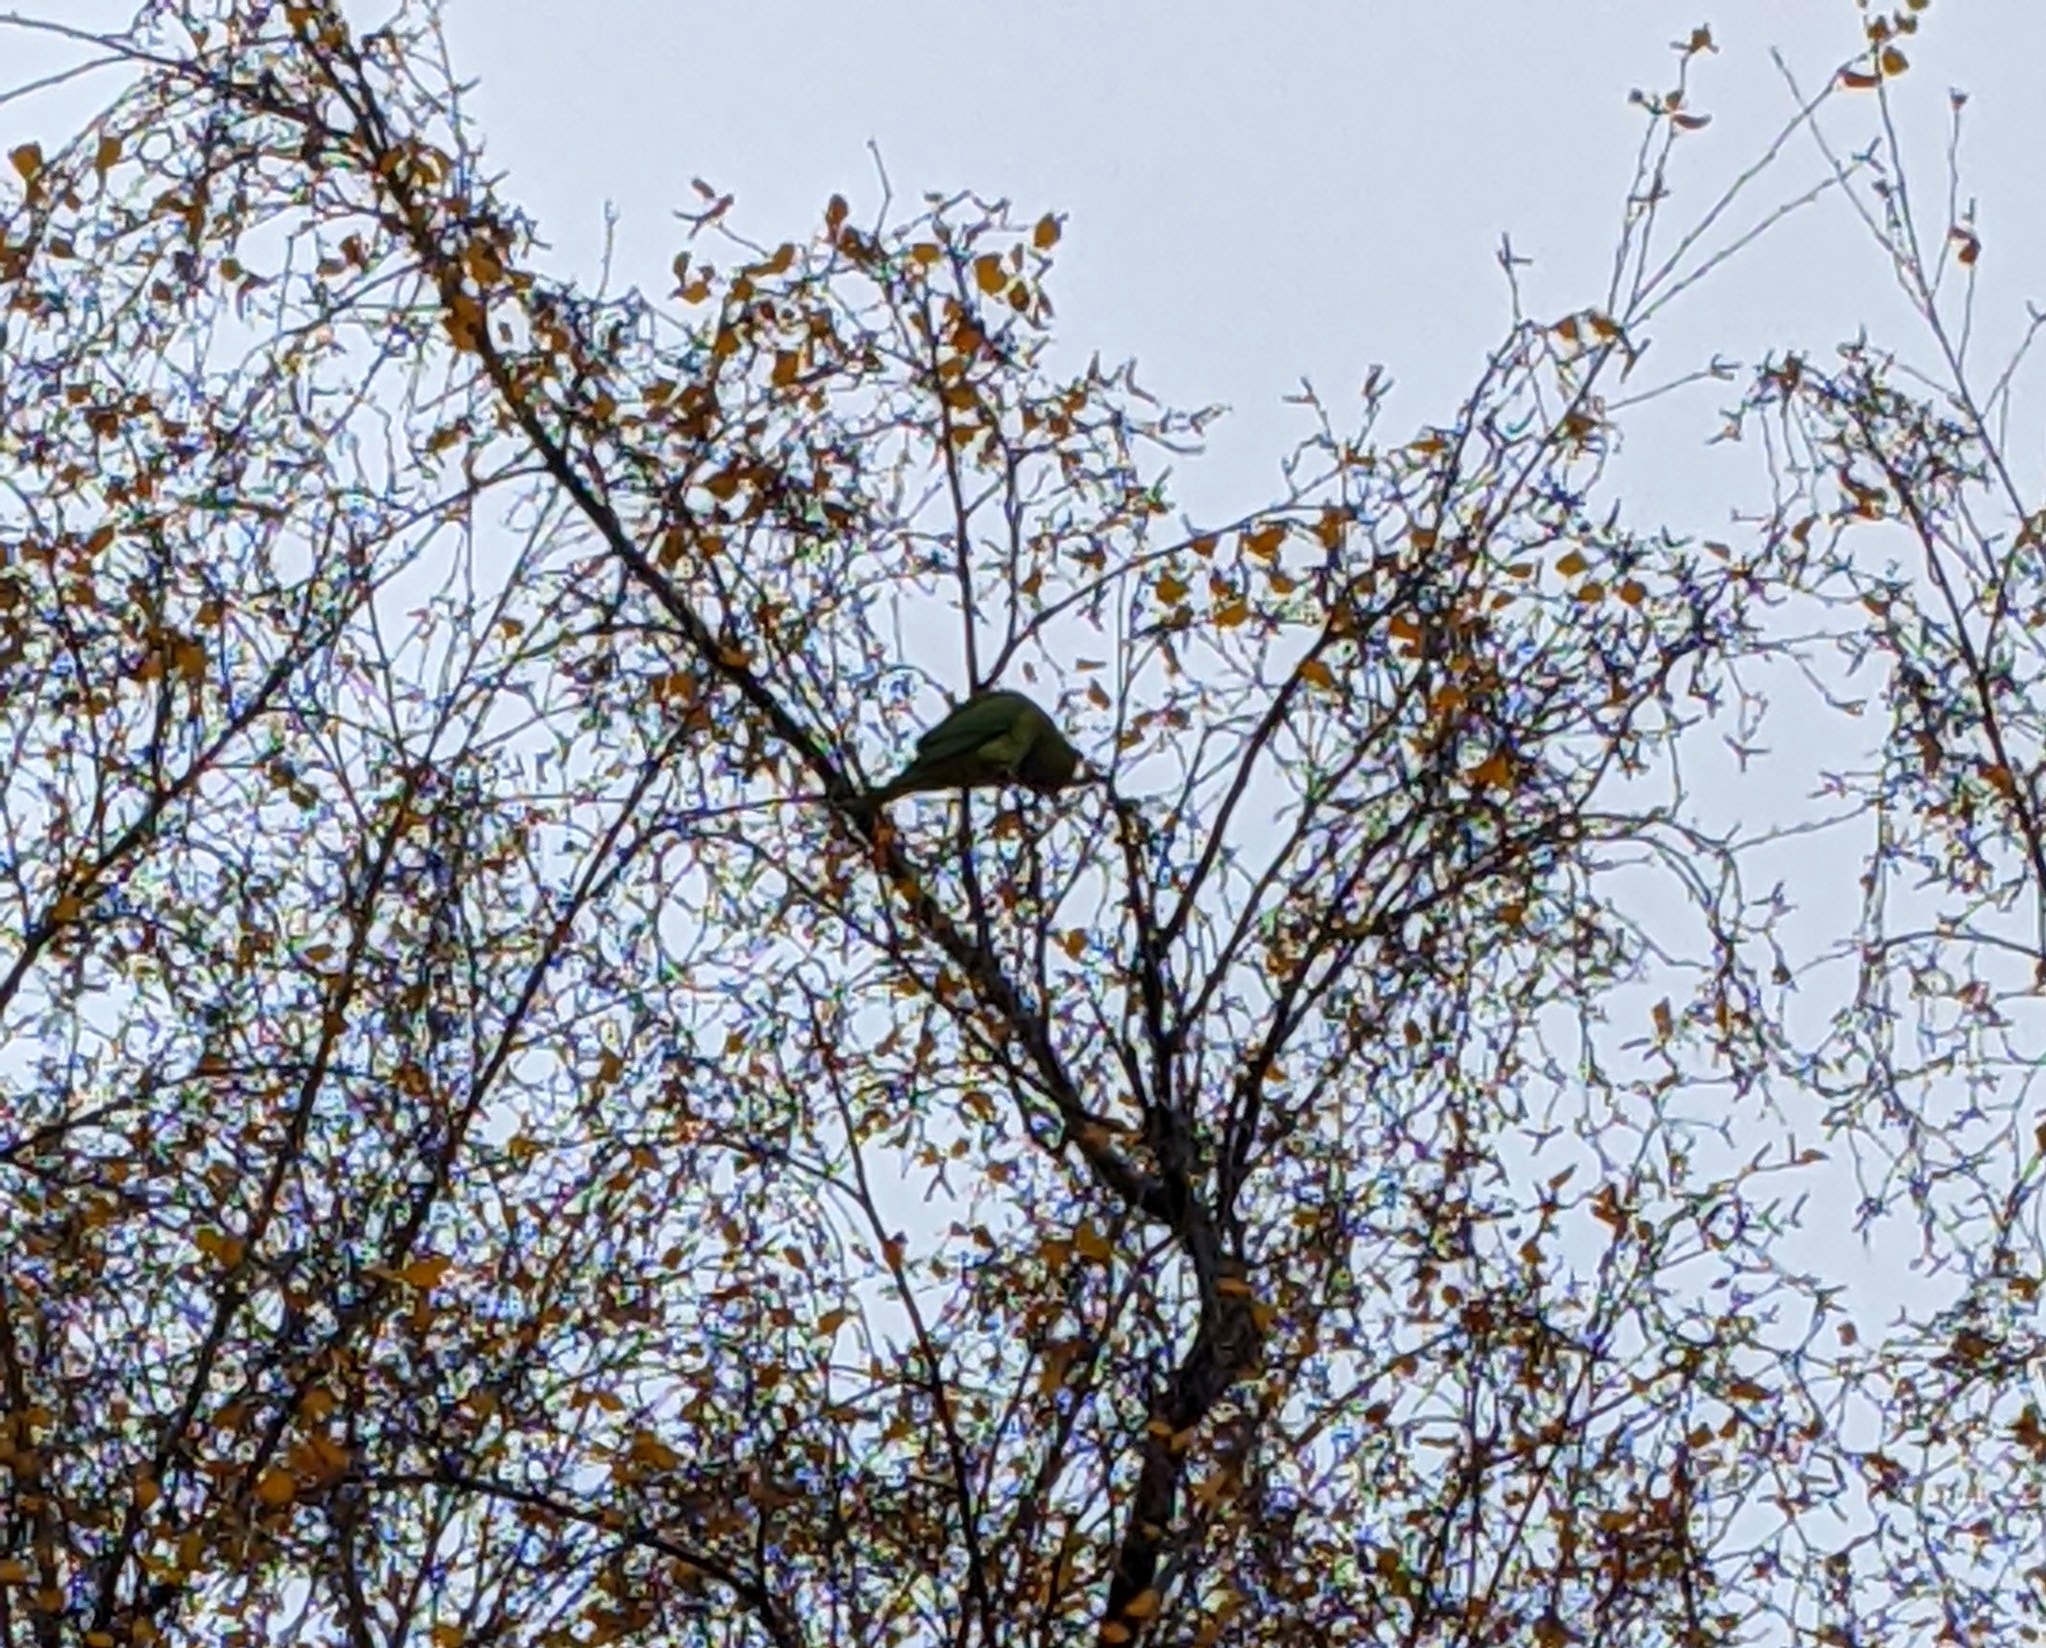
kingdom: Animalia
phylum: Chordata
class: Aves
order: Psittaciformes
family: Psittacidae
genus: Psittacula
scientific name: Psittacula krameri
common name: Rose-ringed parakeet
